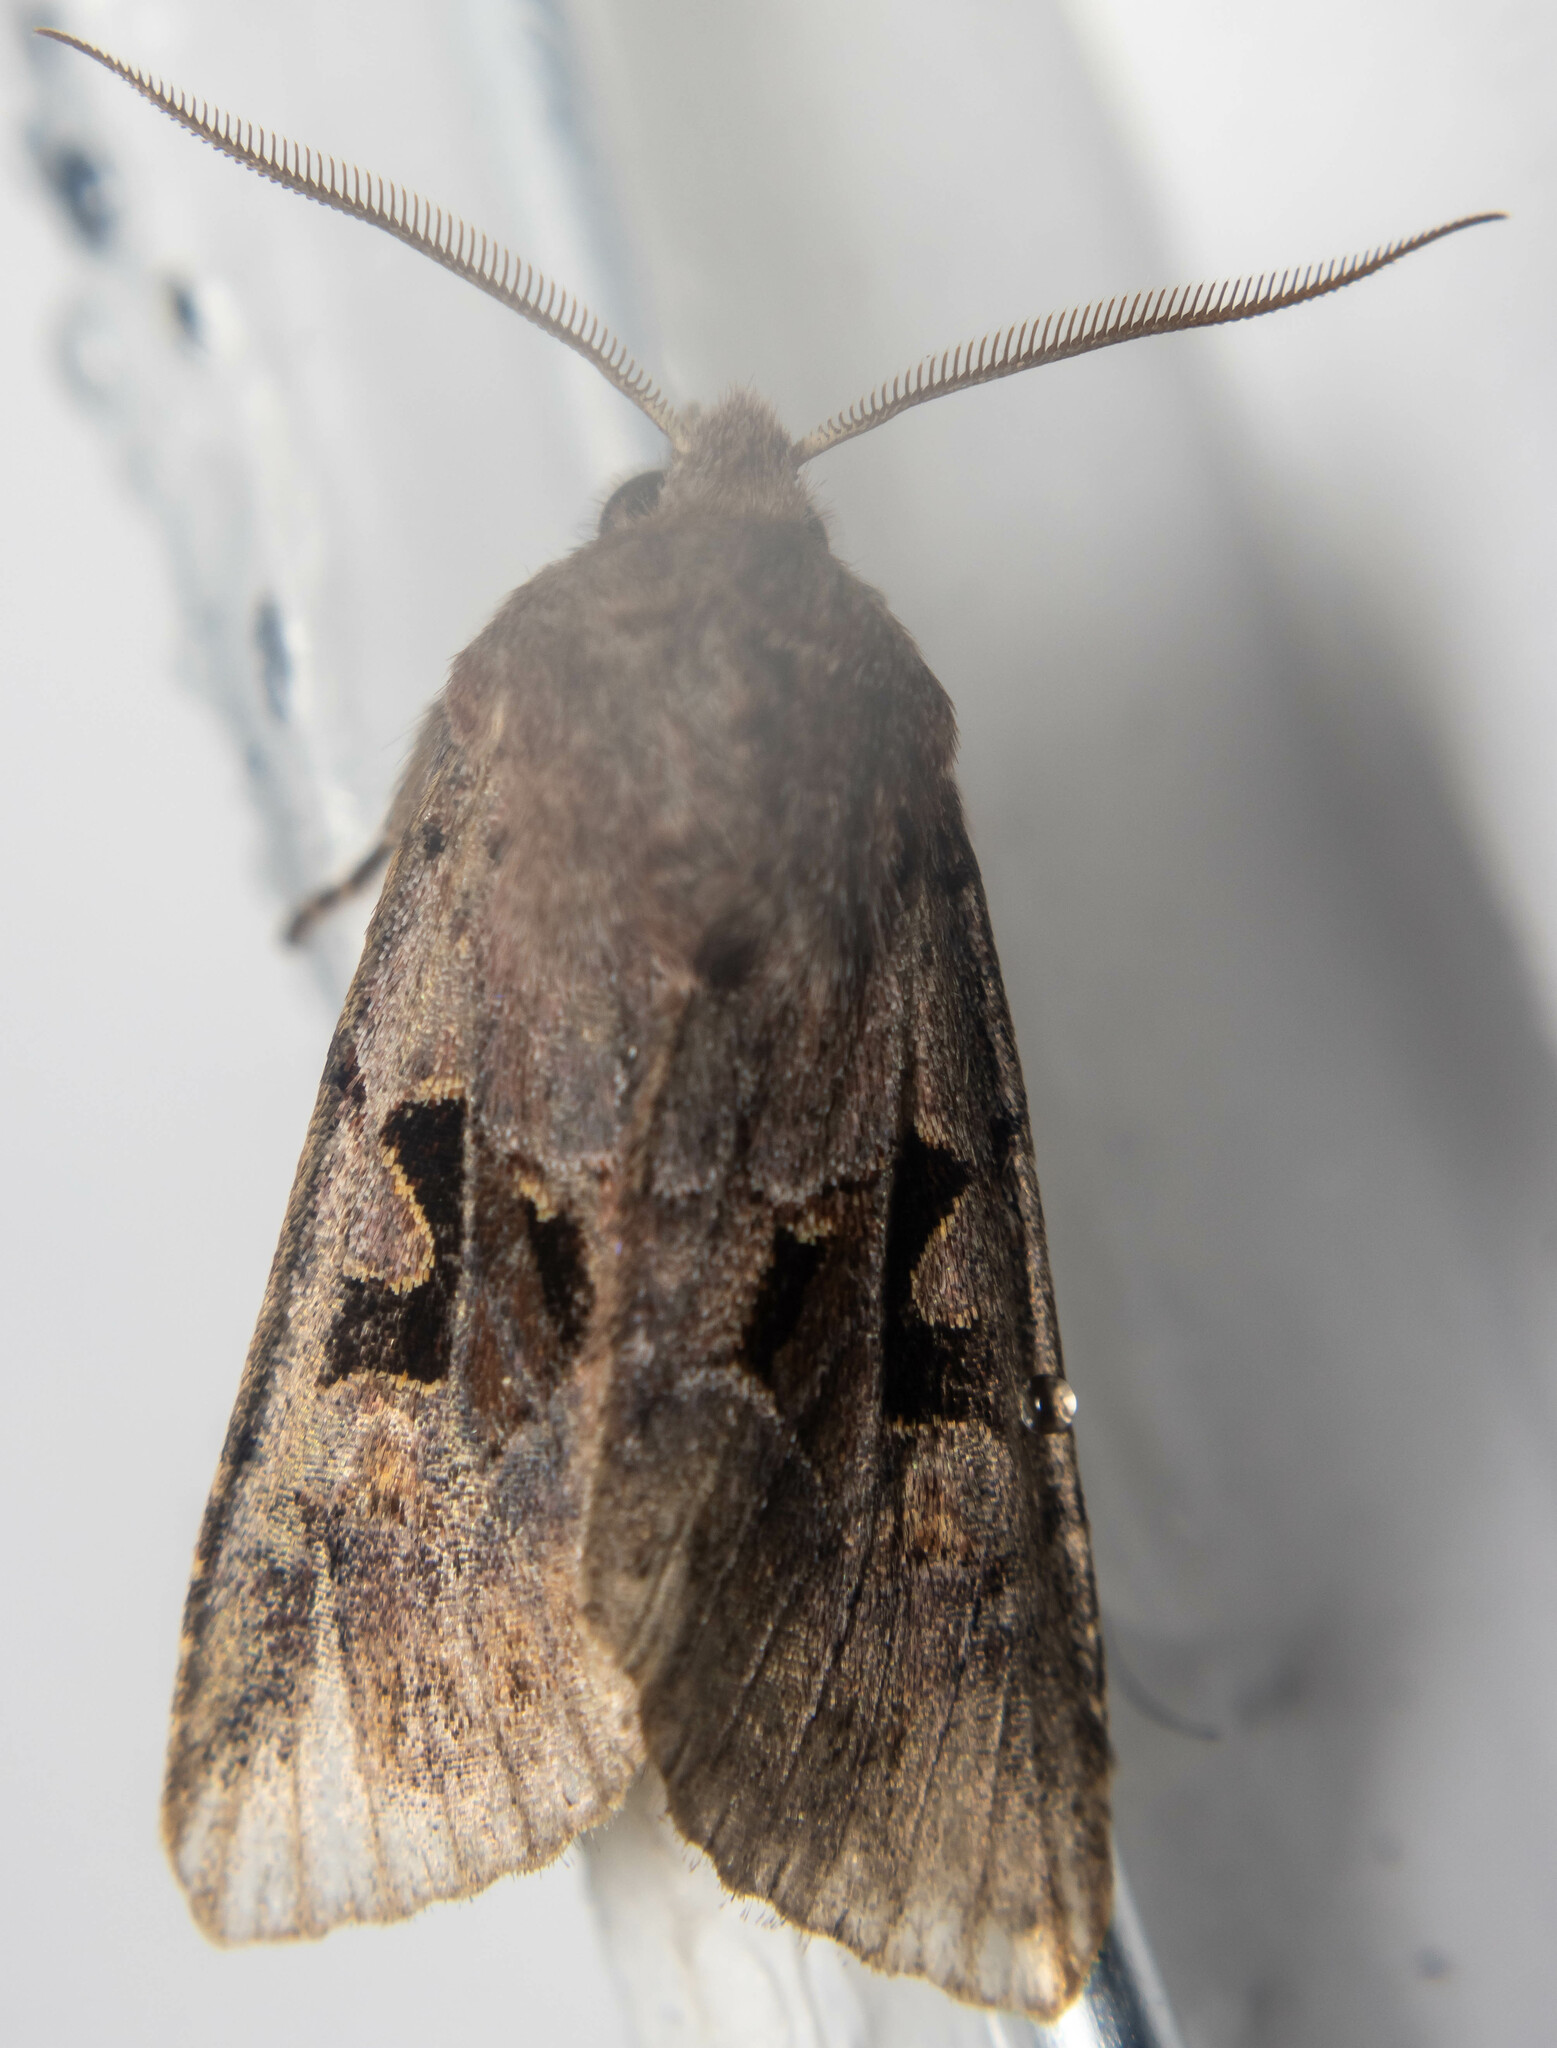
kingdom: Animalia
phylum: Arthropoda
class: Insecta
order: Lepidoptera
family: Noctuidae
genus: Orthosia
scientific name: Orthosia gothica
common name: Hebrew character
